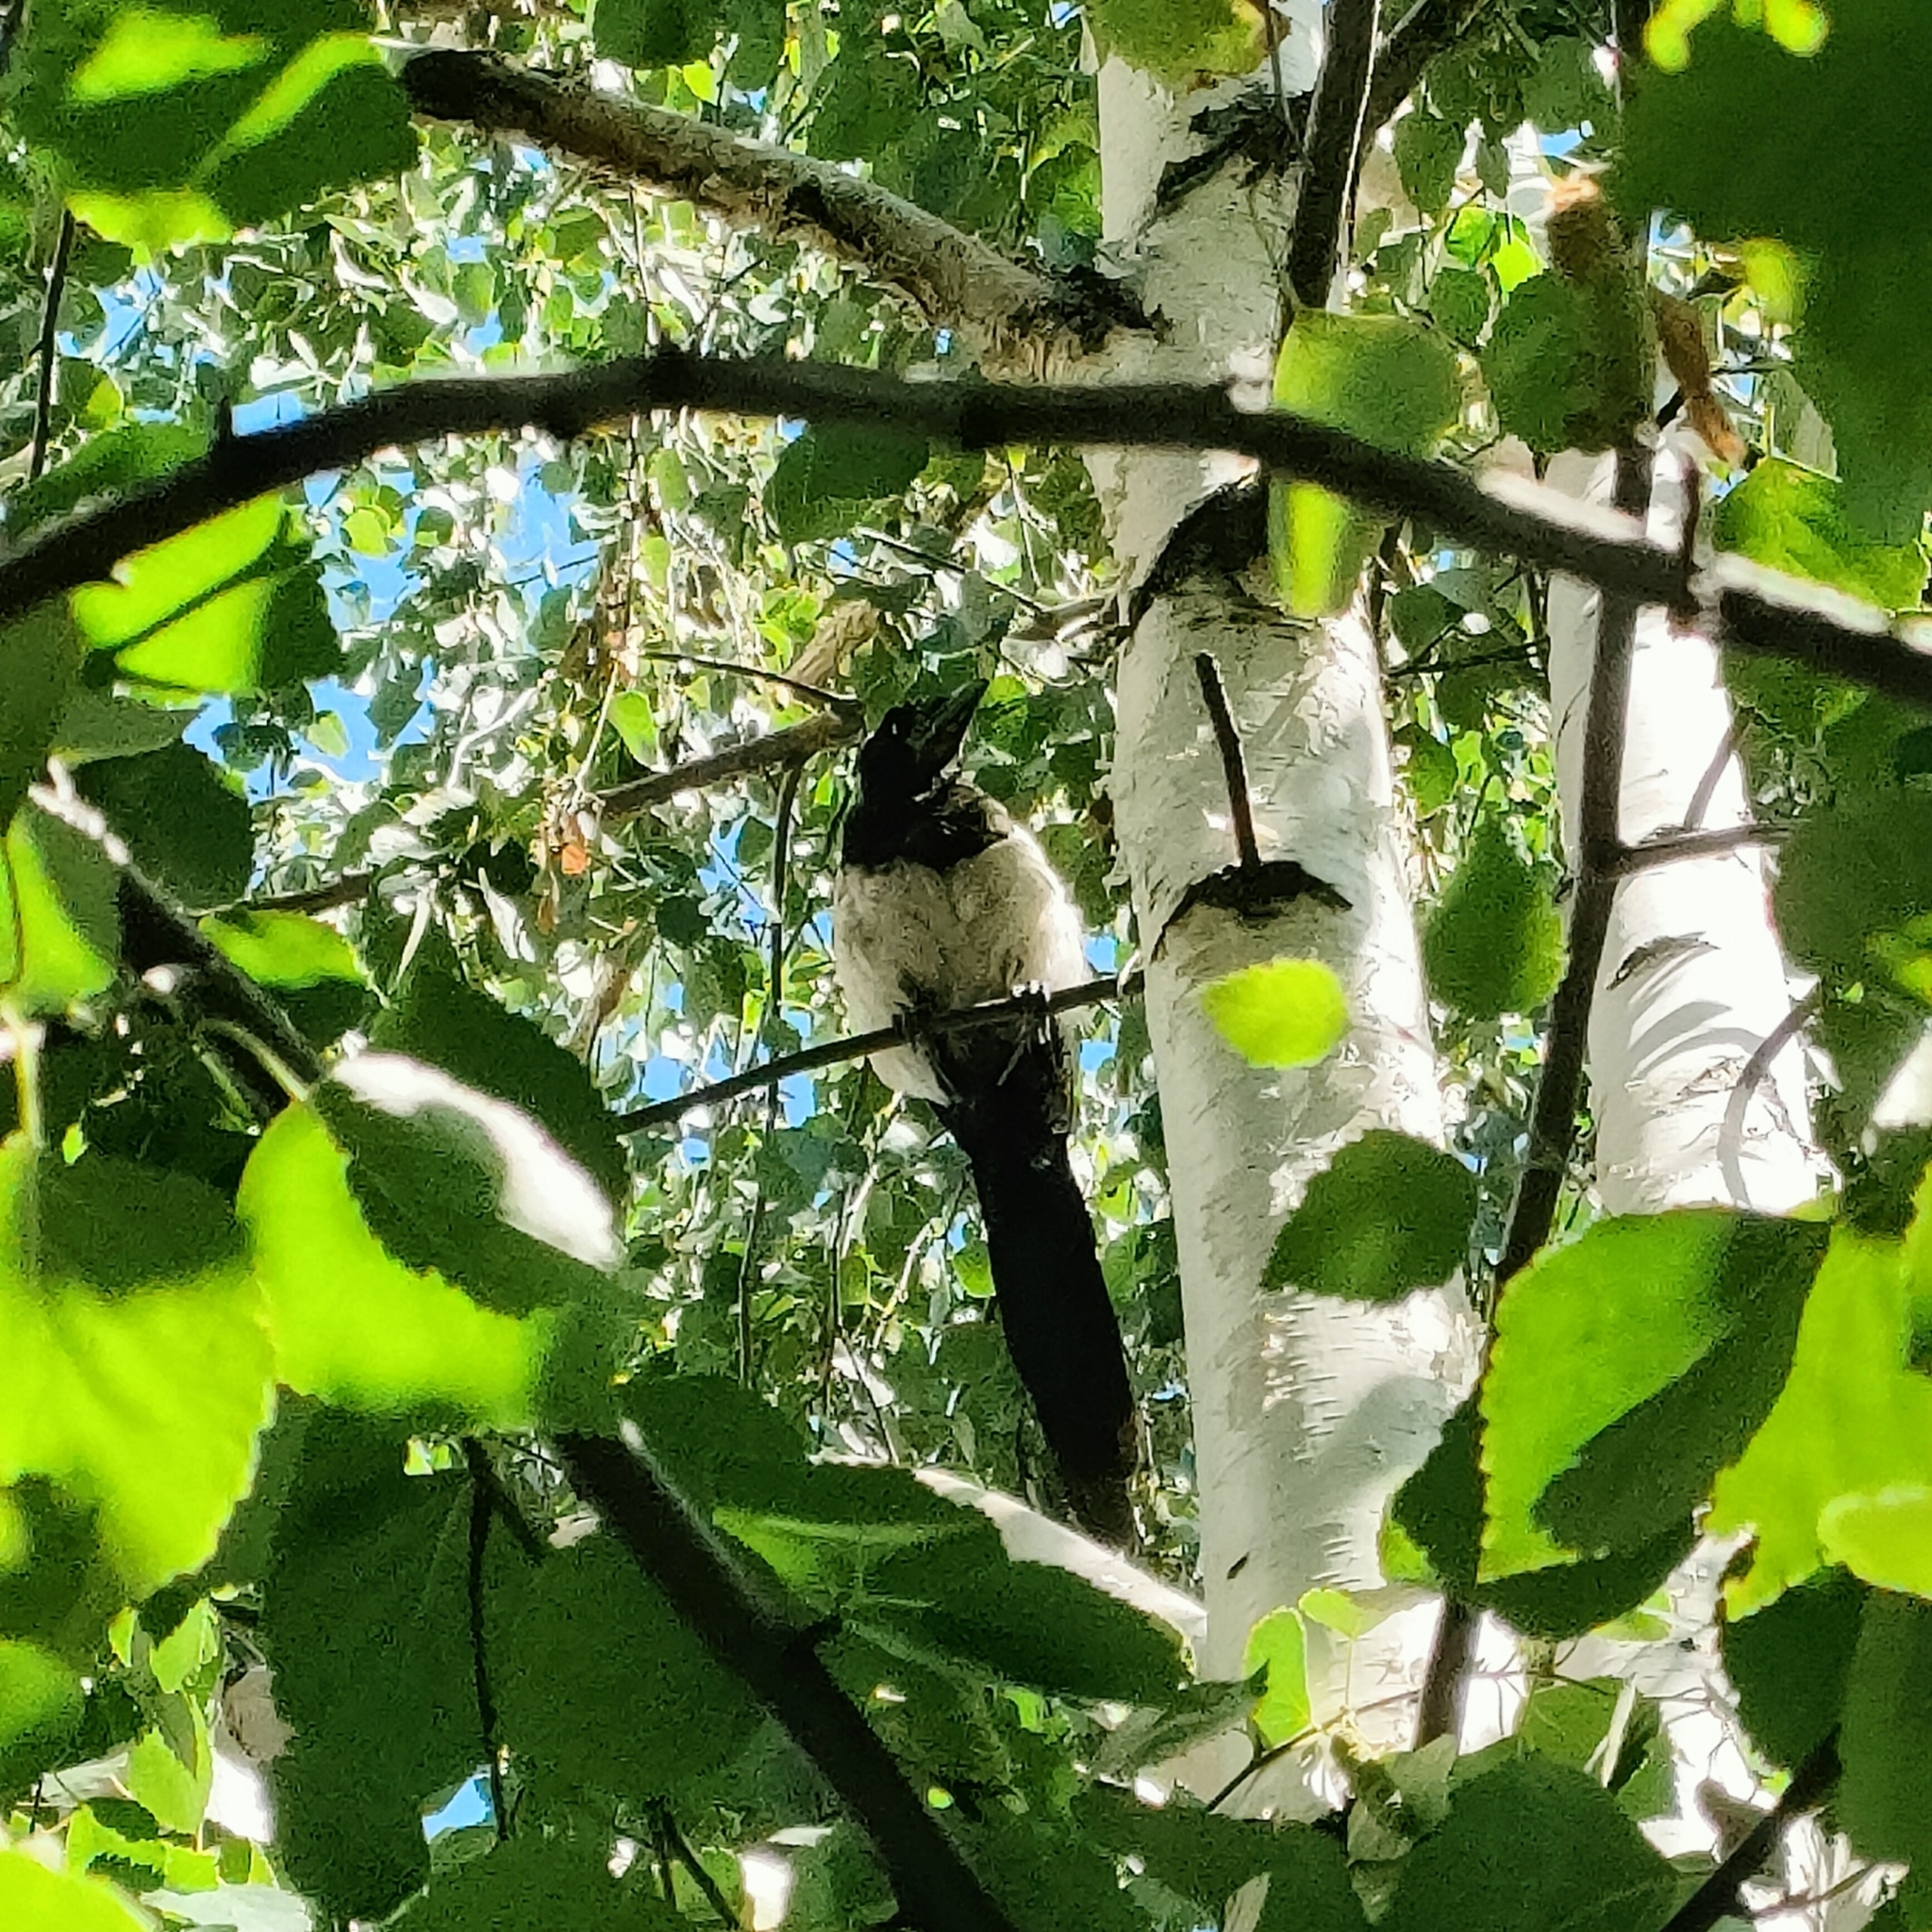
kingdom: Animalia
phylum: Chordata
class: Aves
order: Passeriformes
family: Corvidae
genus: Pica
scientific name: Pica pica
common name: Eurasian magpie
